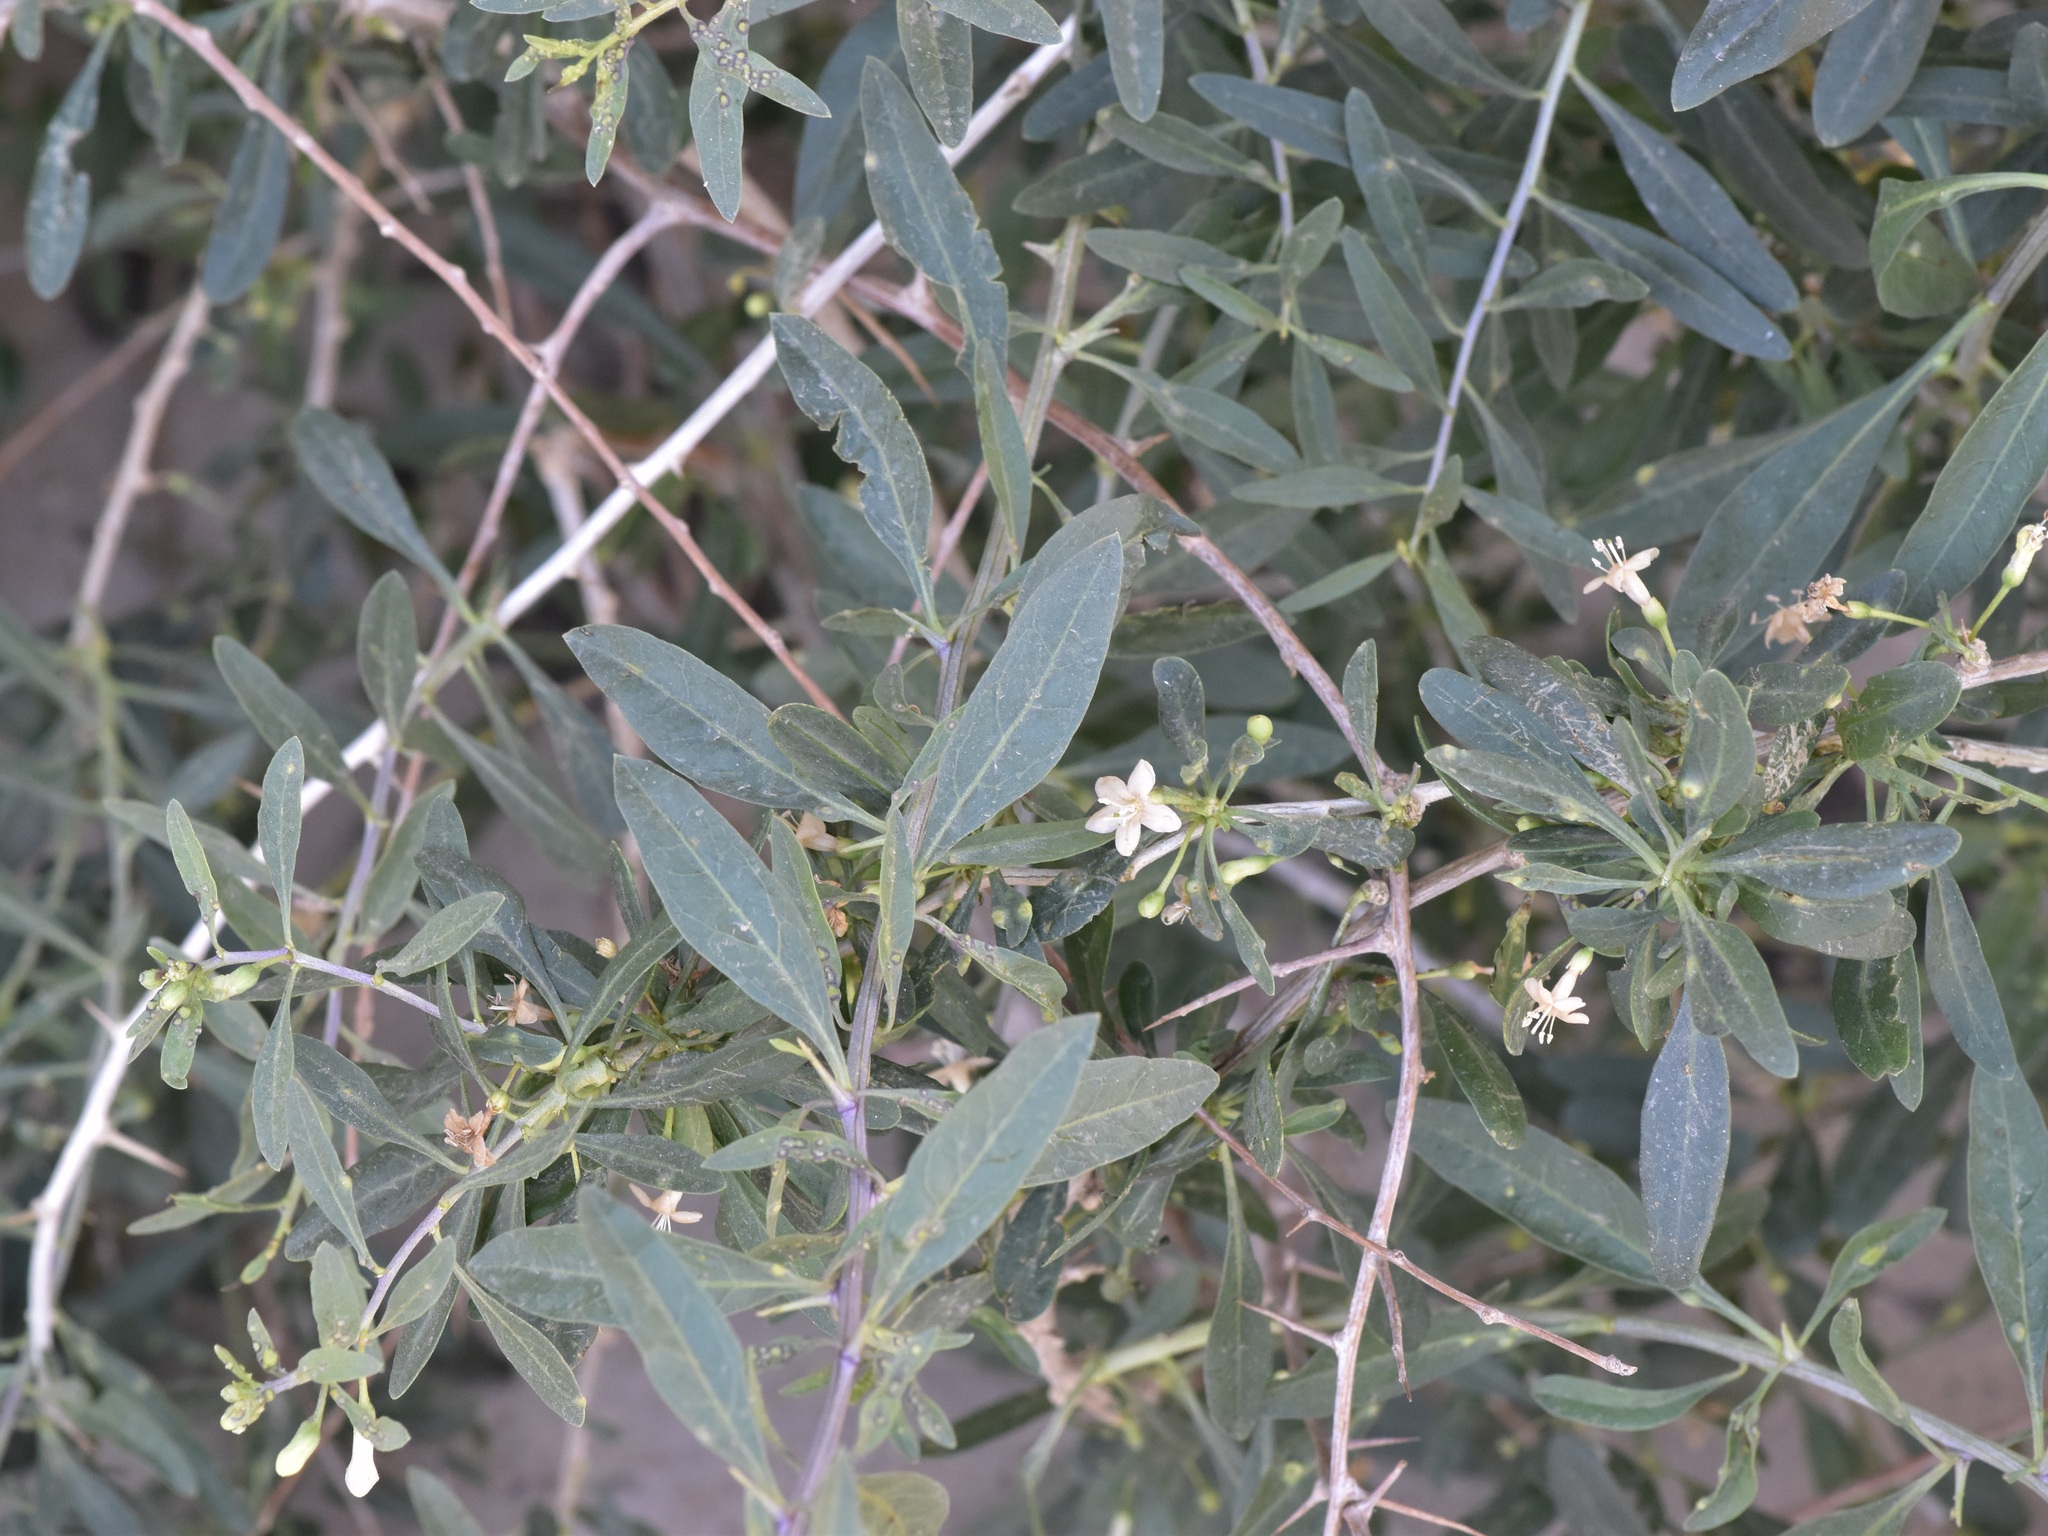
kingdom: Plantae
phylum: Tracheophyta
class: Magnoliopsida
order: Solanales
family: Solanaceae
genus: Lycium
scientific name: Lycium depressum
